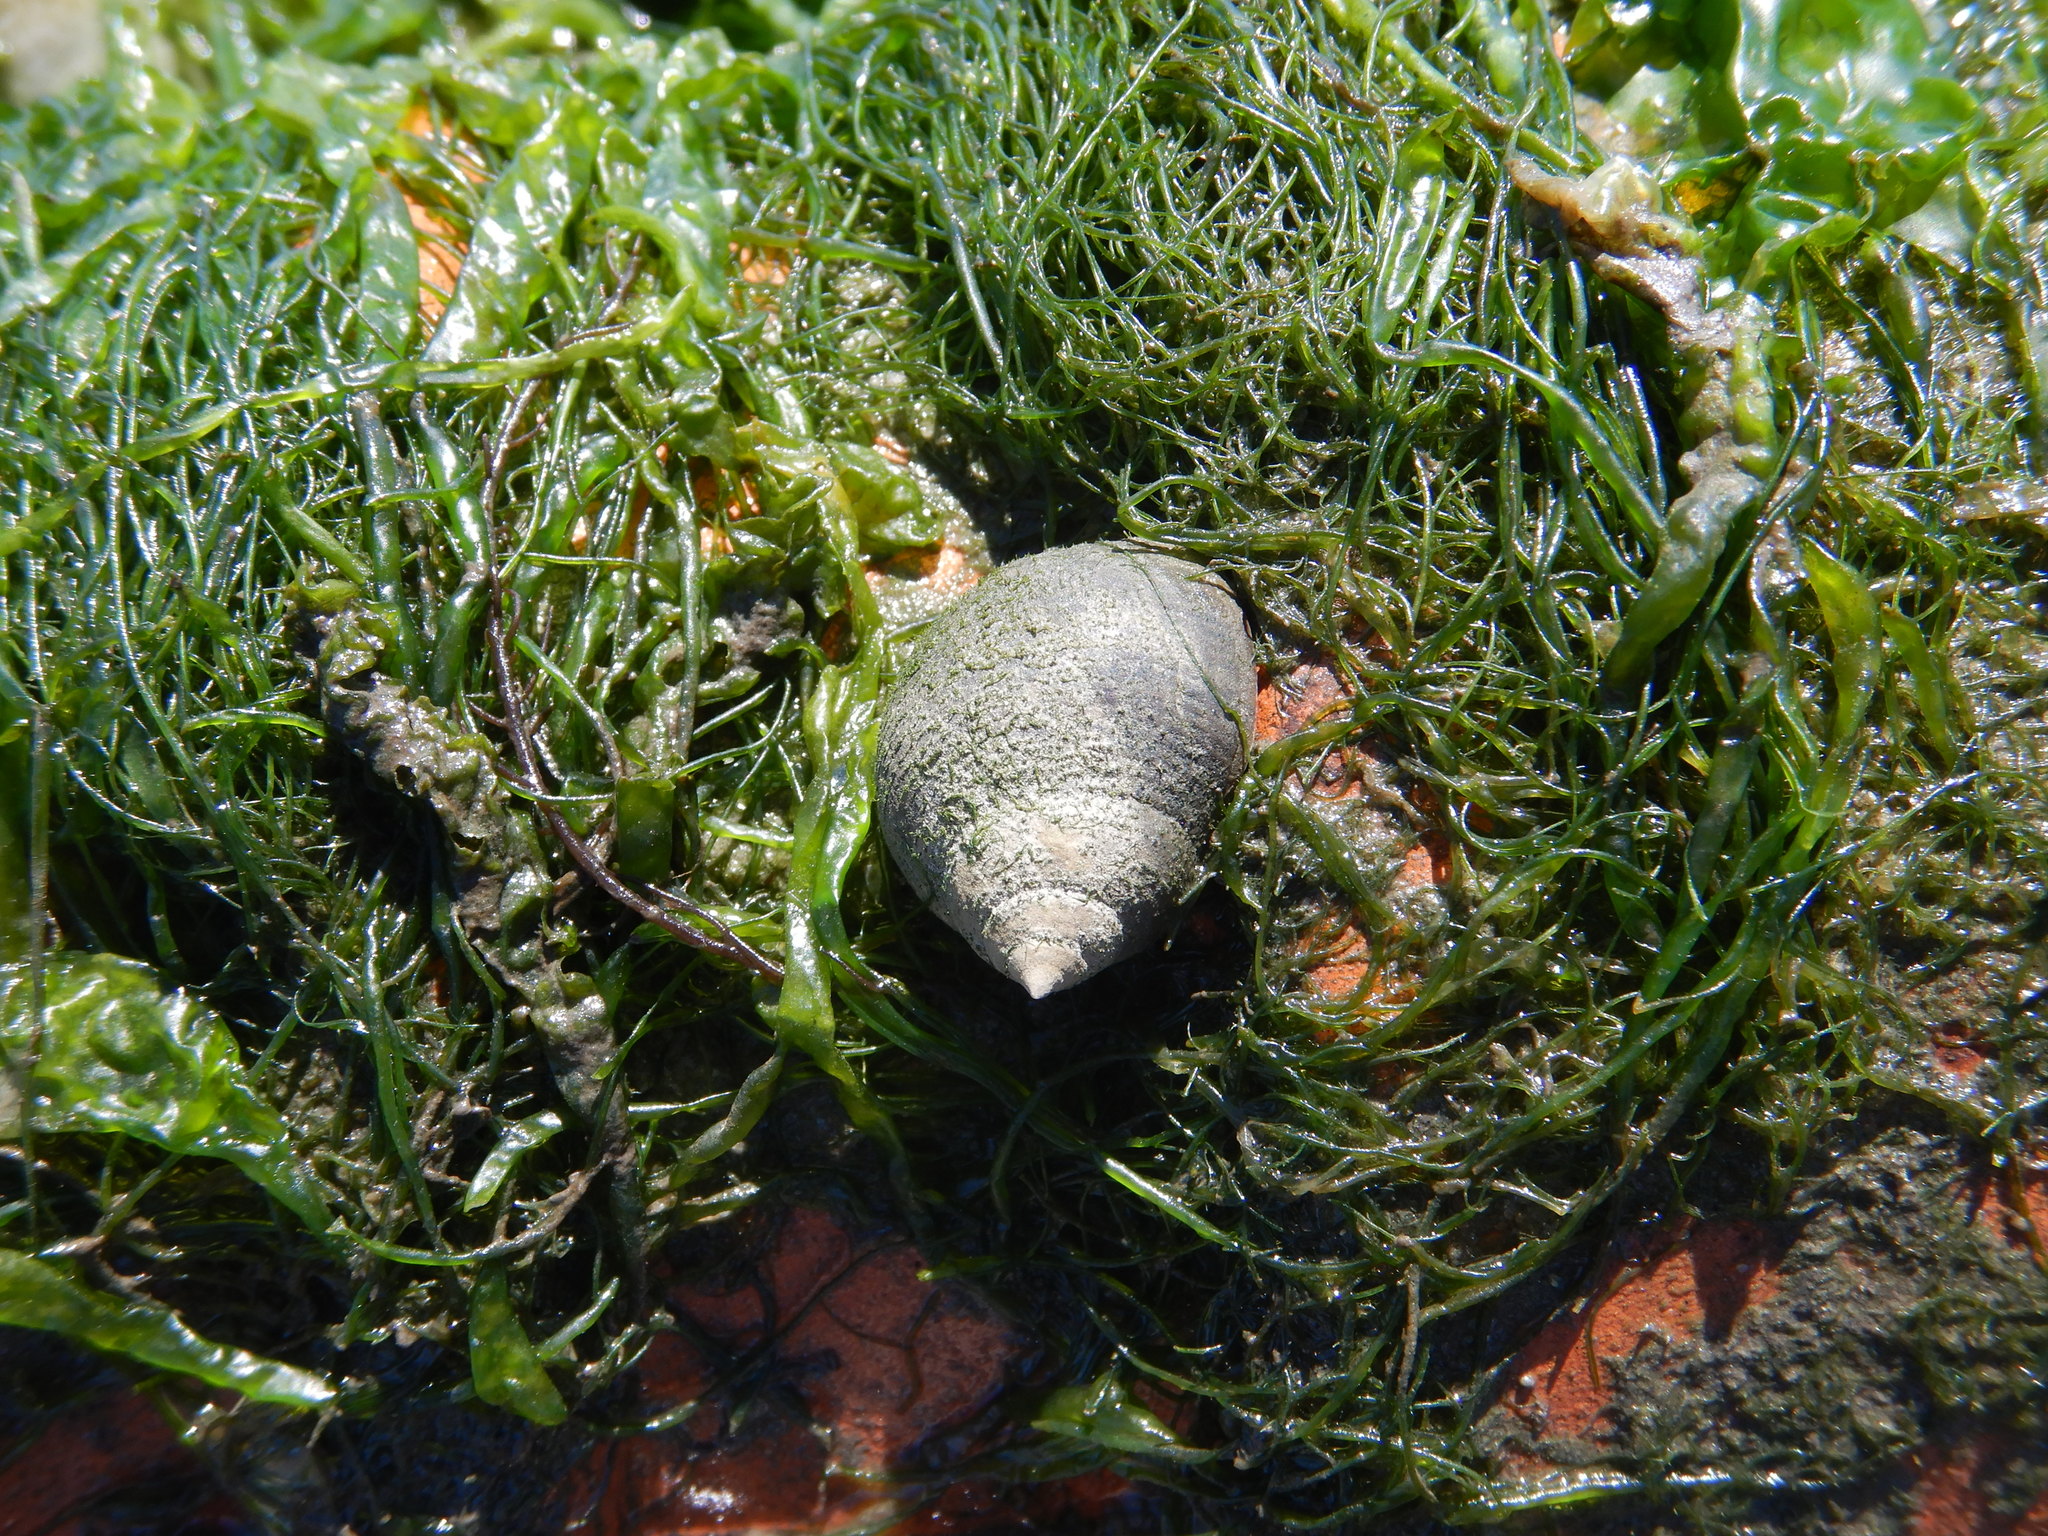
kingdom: Animalia
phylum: Mollusca
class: Gastropoda
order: Littorinimorpha
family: Littorinidae
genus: Littorina
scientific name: Littorina littorea
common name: Common periwinkle
